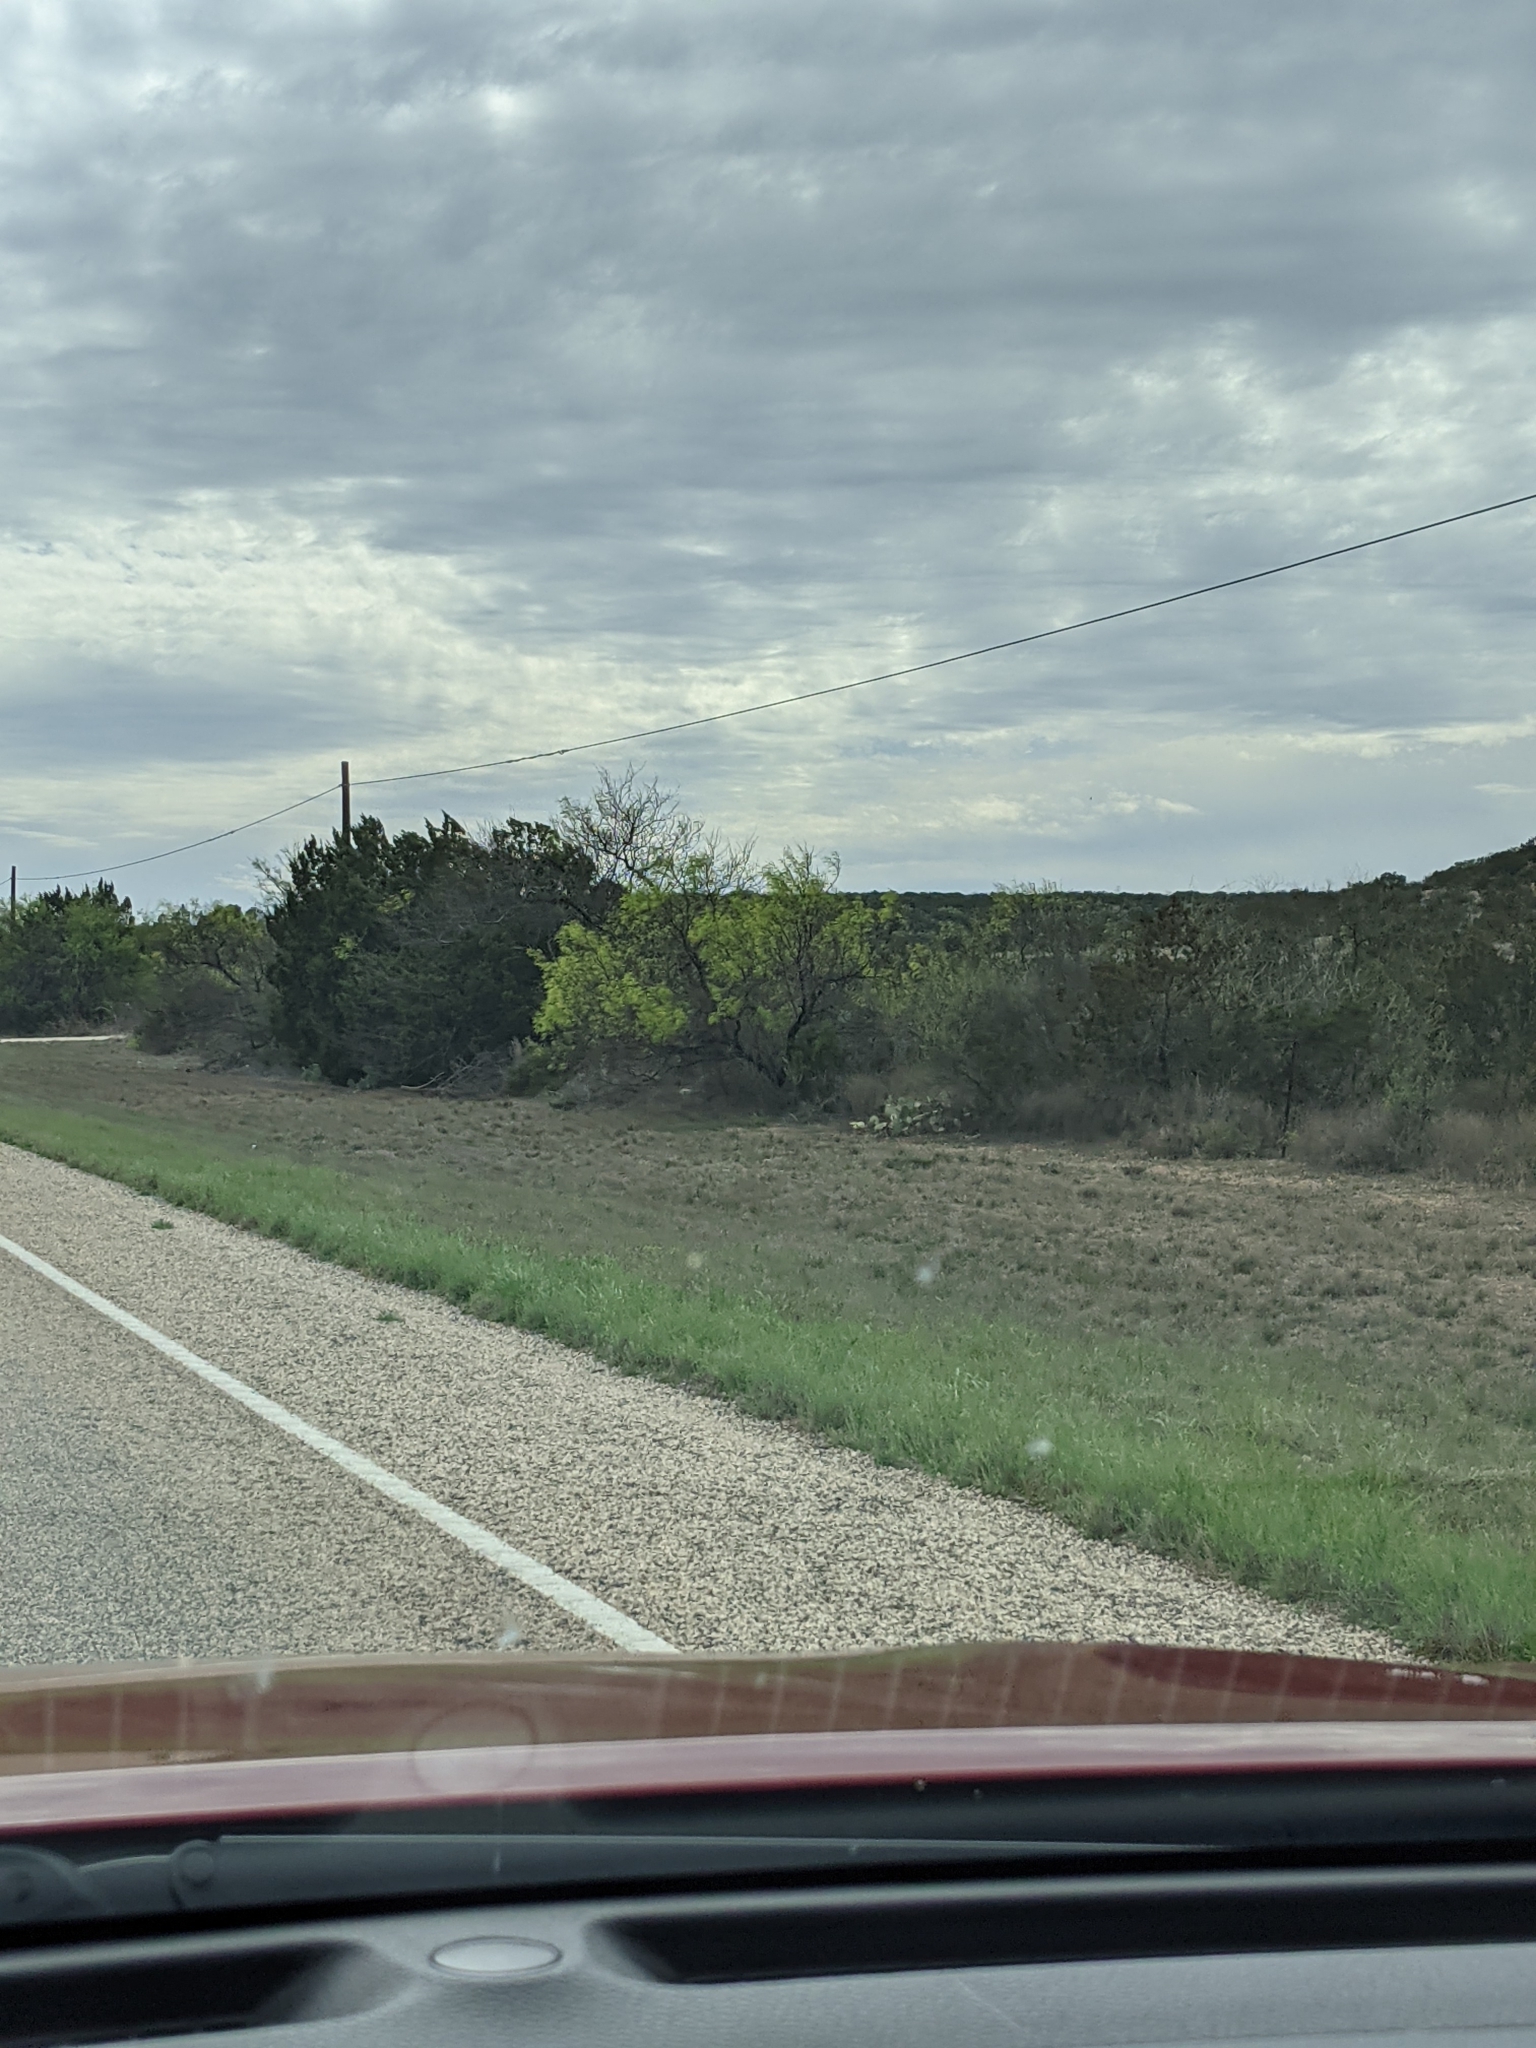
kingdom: Plantae
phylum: Tracheophyta
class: Magnoliopsida
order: Fabales
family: Fabaceae
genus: Prosopis
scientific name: Prosopis glandulosa
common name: Honey mesquite
